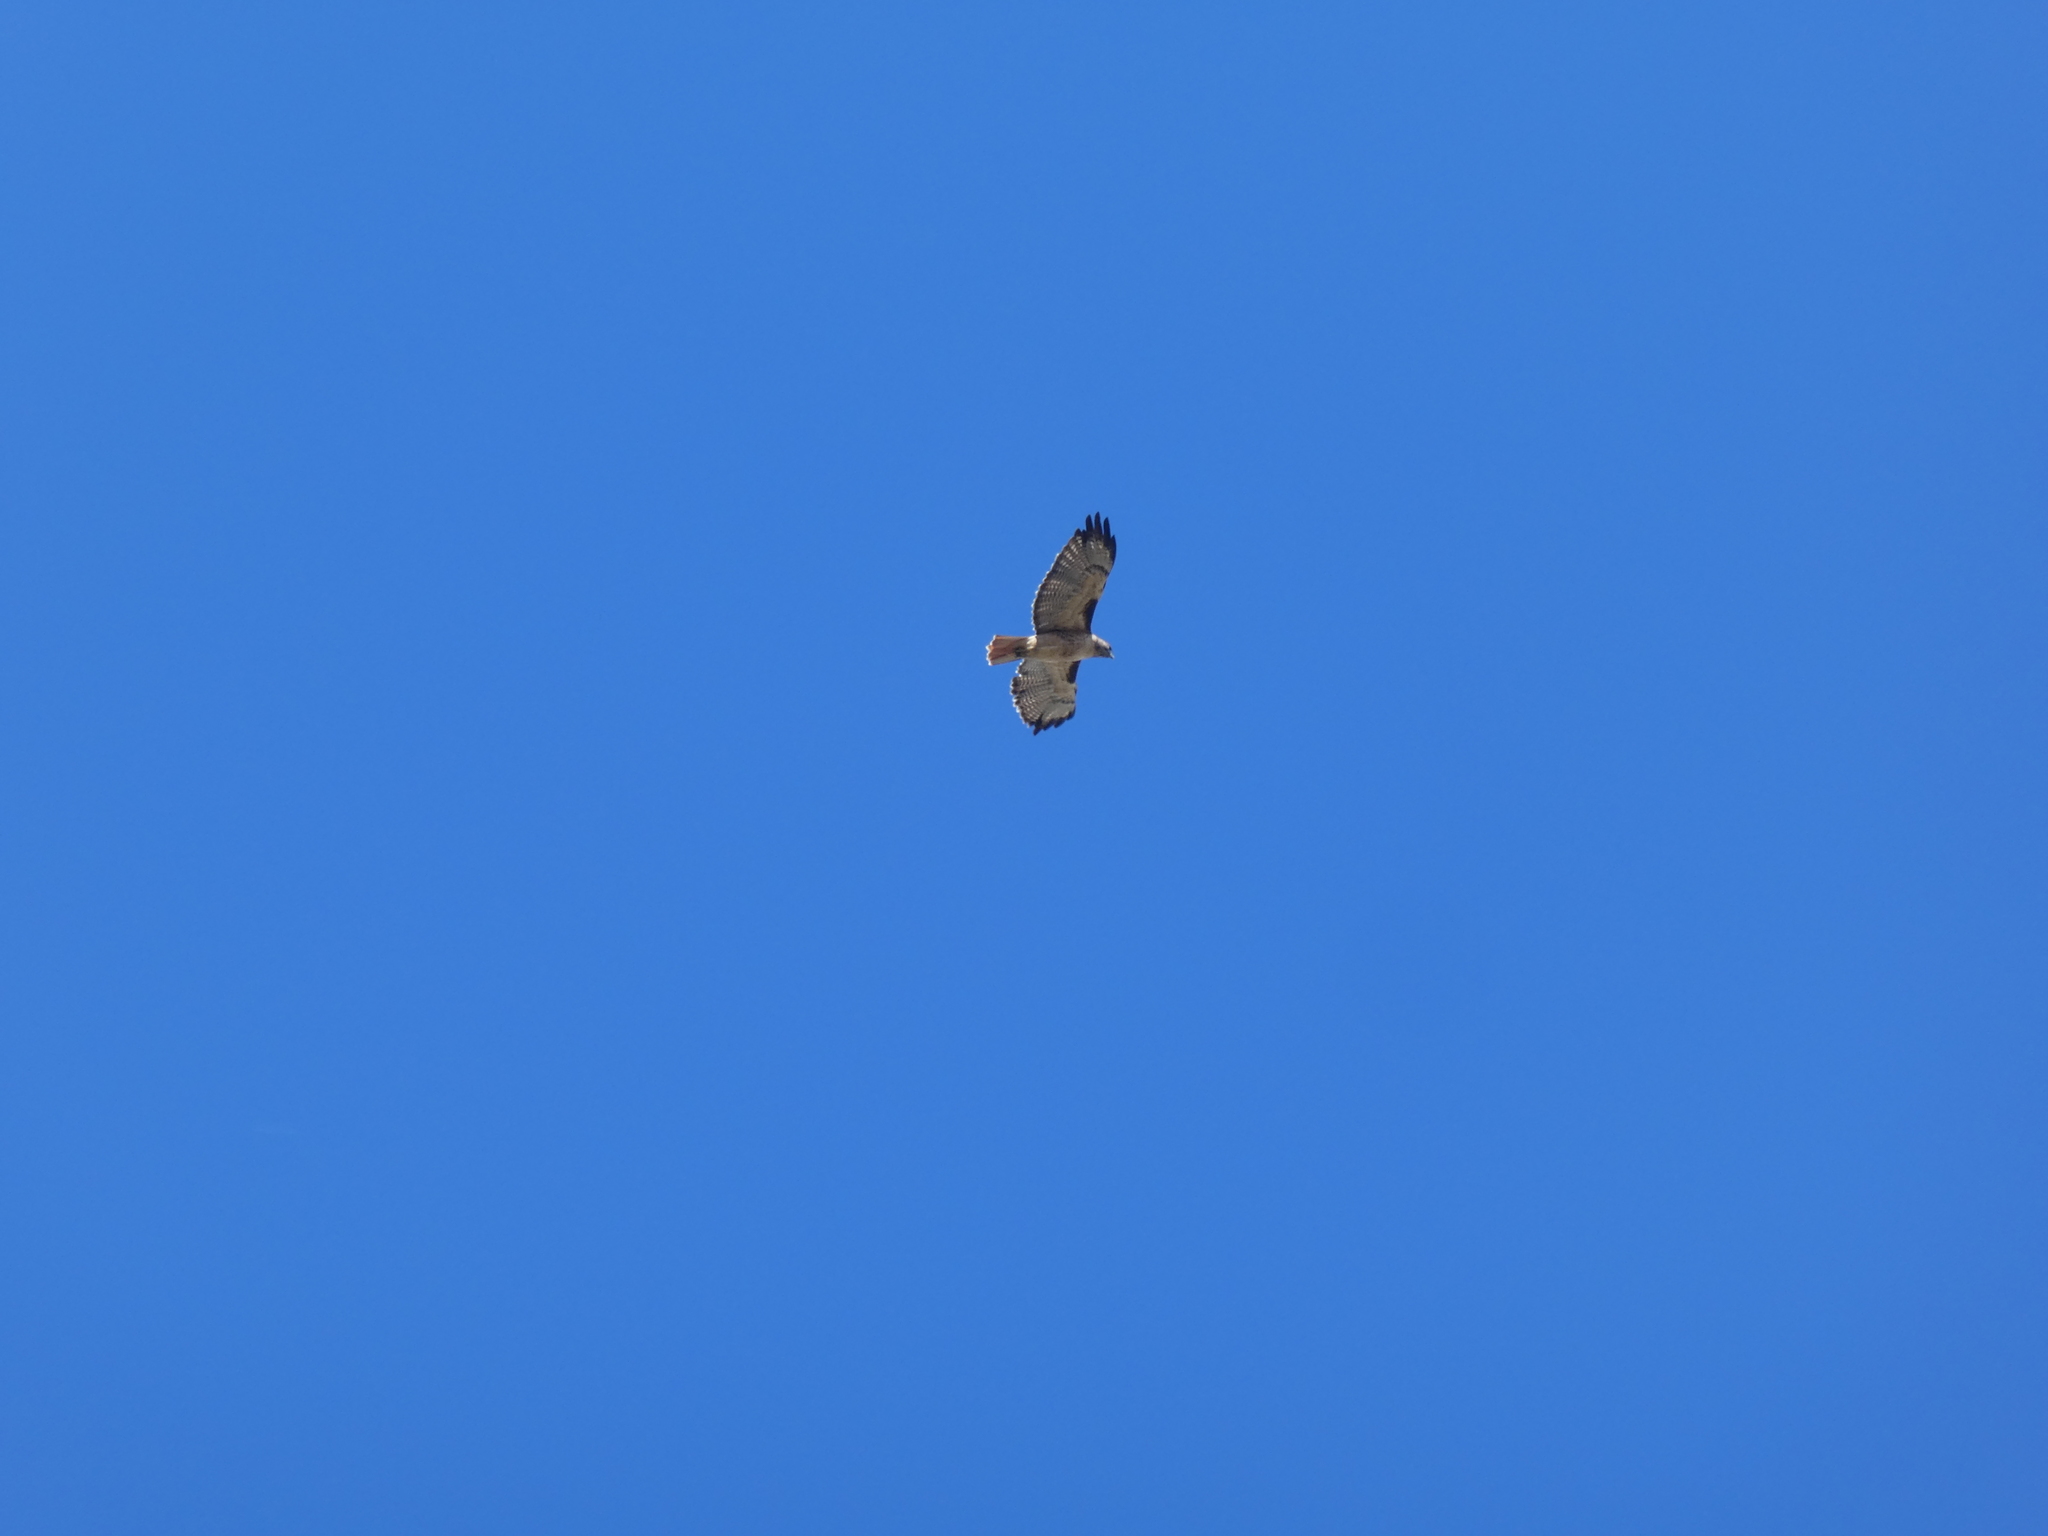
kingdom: Animalia
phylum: Chordata
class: Aves
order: Accipitriformes
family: Accipitridae
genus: Buteo
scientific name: Buteo jamaicensis
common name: Red-tailed hawk
